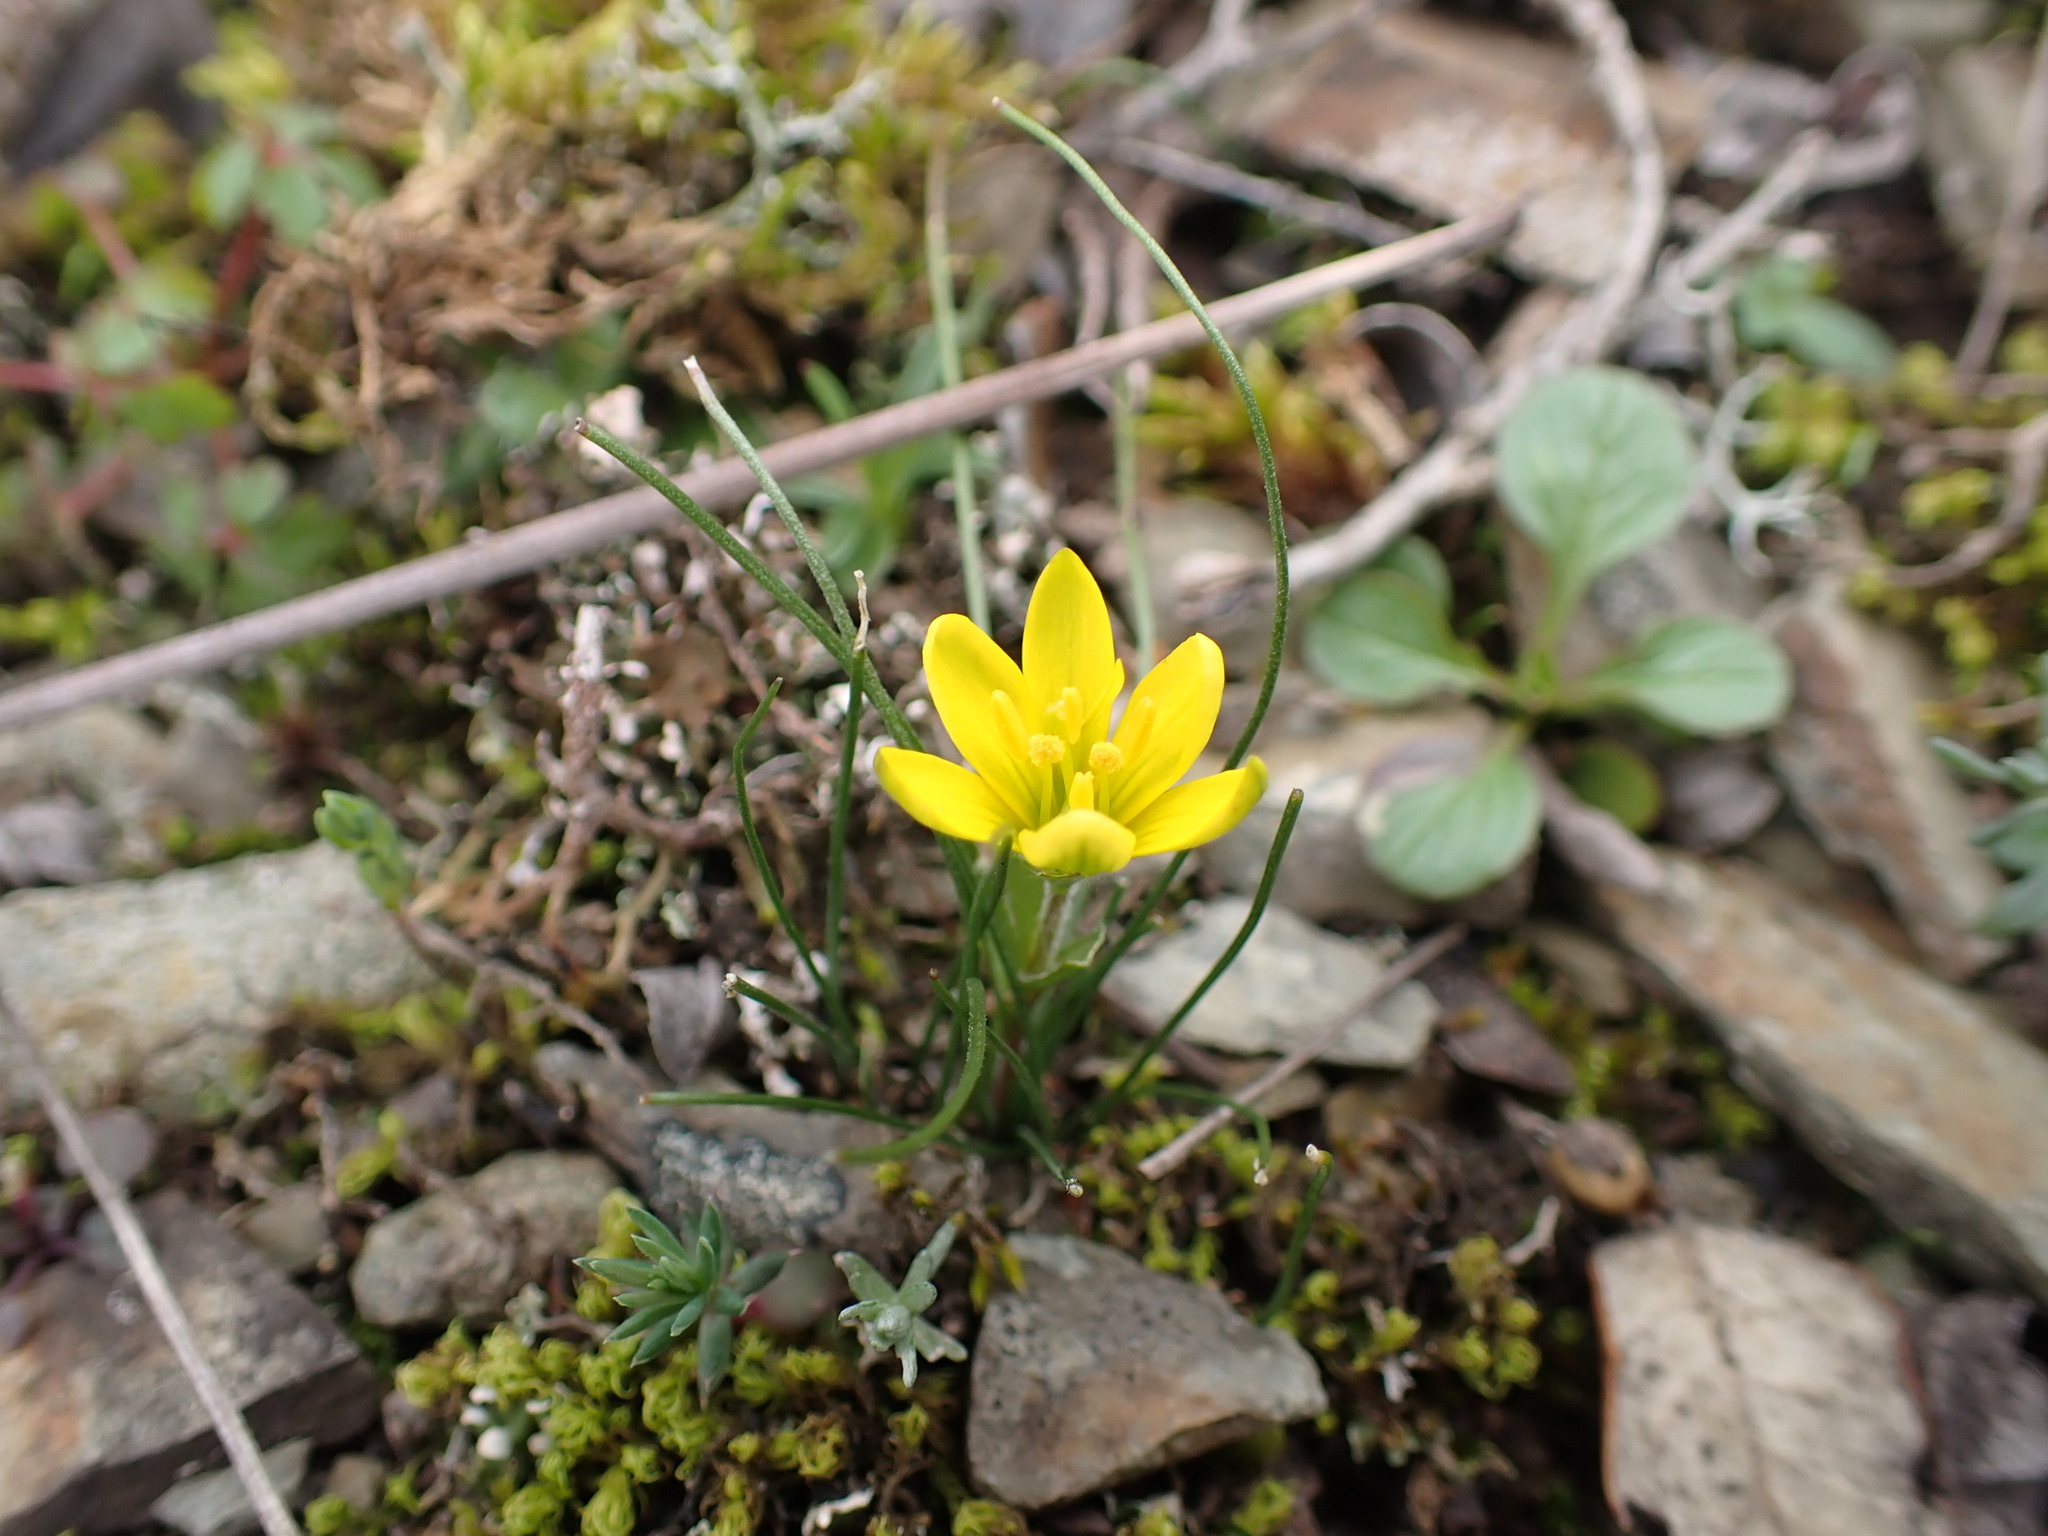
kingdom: Plantae
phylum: Tracheophyta
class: Liliopsida
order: Liliales
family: Liliaceae
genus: Gagea
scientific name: Gagea bohemica
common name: Early star-of-bethlehem
